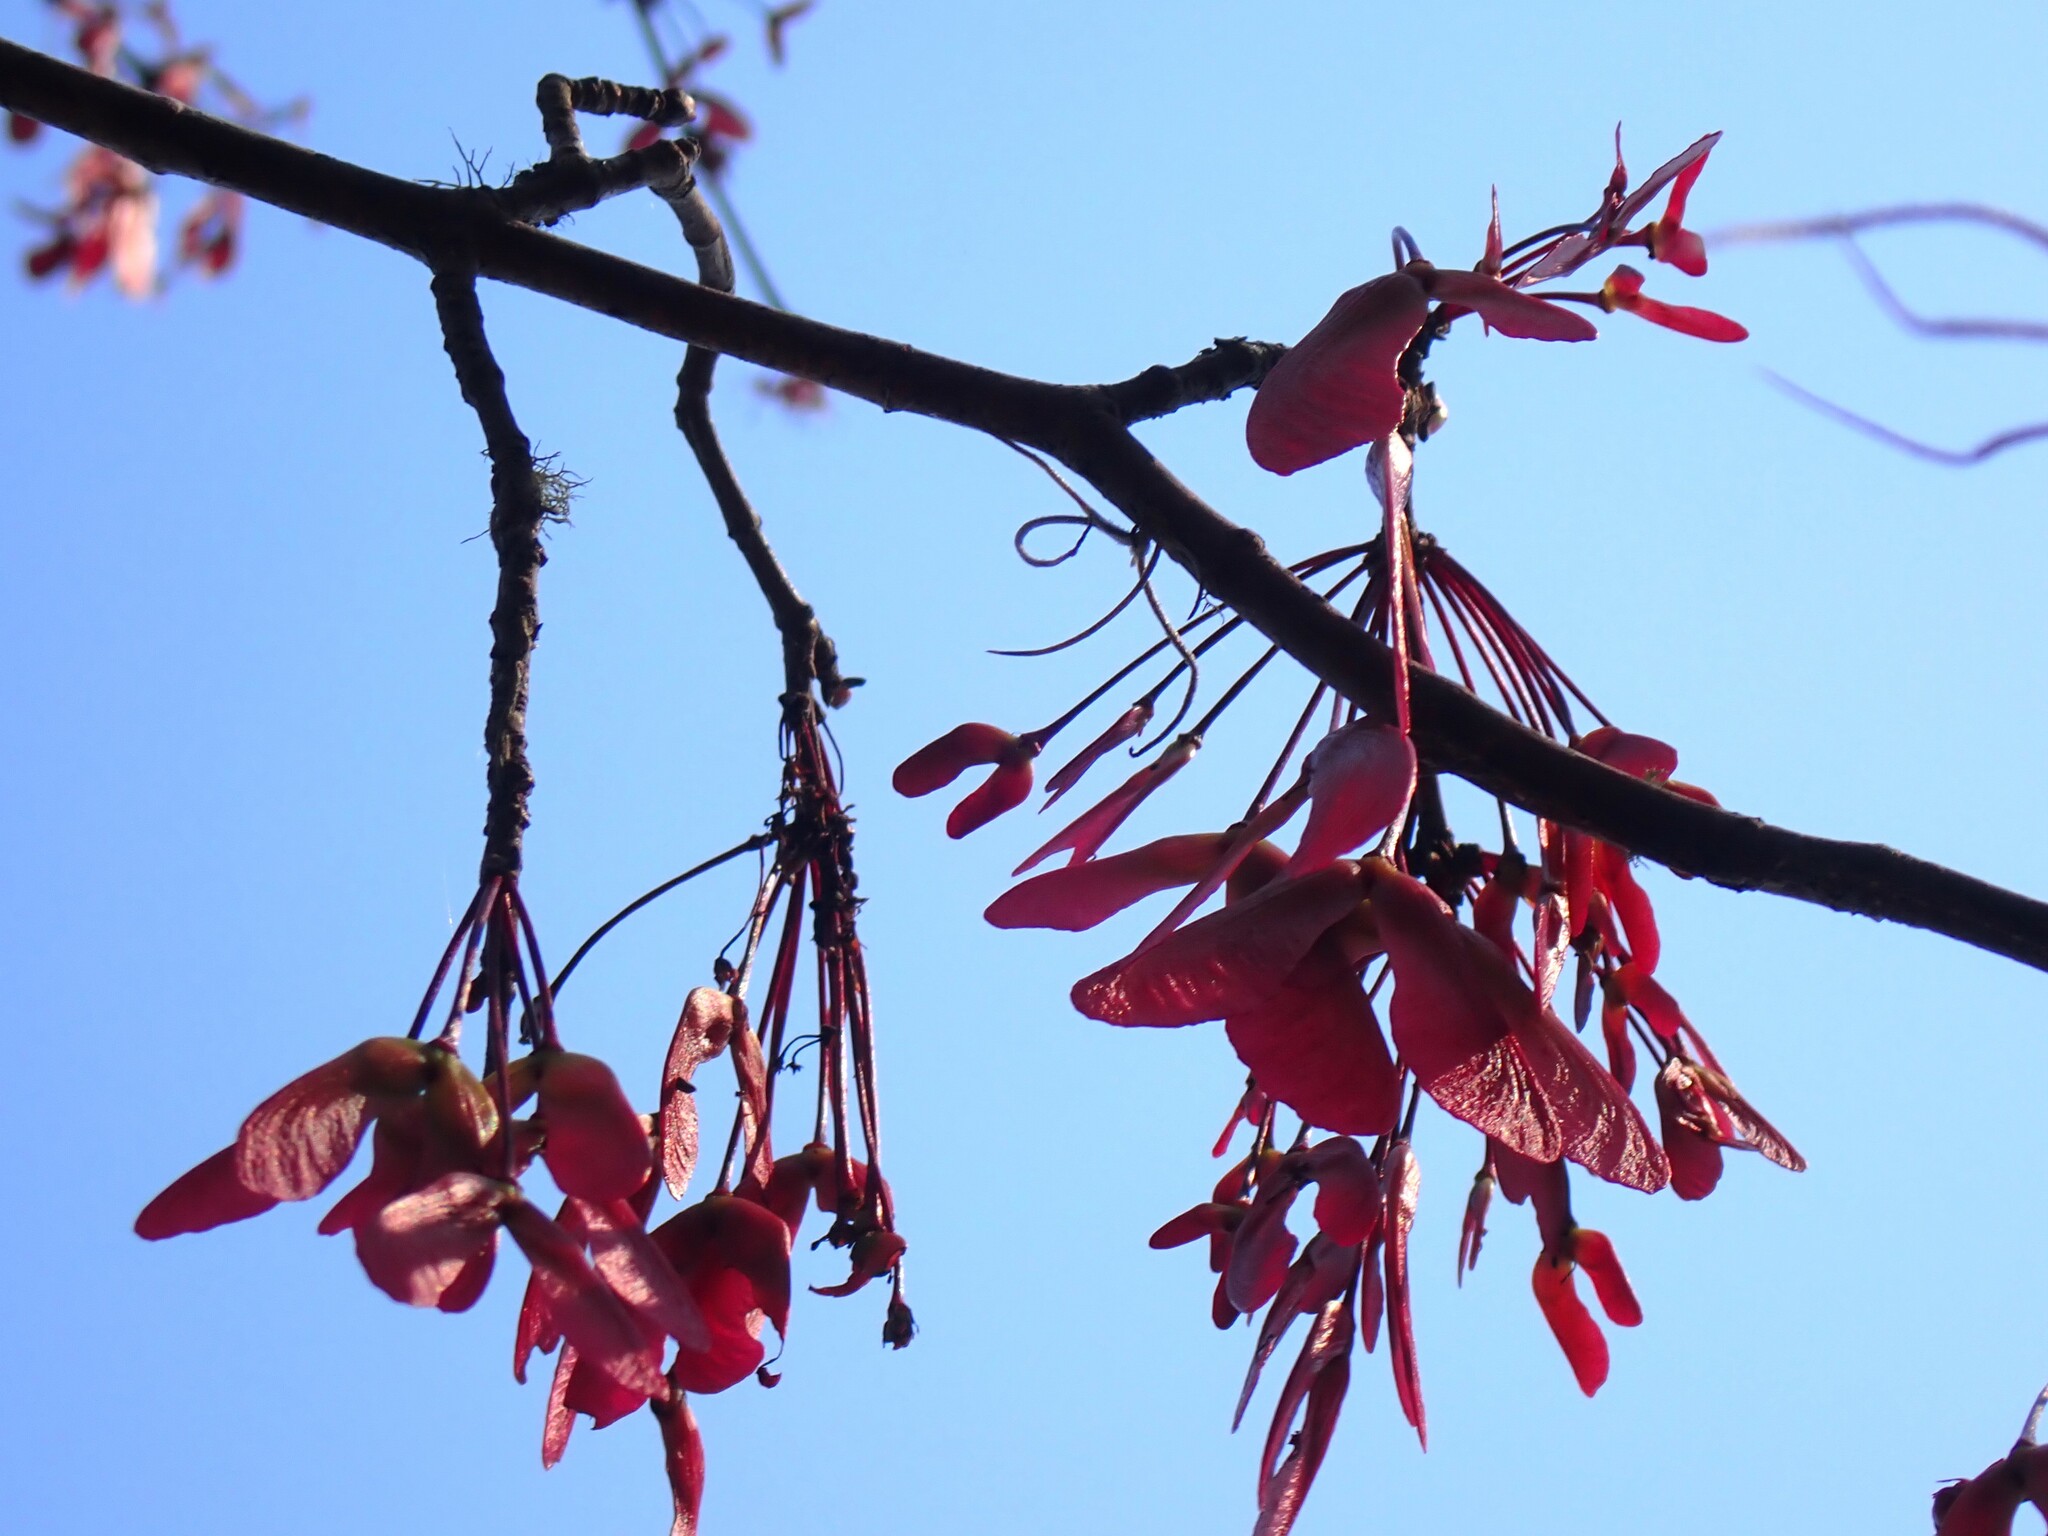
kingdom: Plantae
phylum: Tracheophyta
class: Magnoliopsida
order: Sapindales
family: Sapindaceae
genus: Acer
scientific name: Acer rubrum
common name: Red maple
